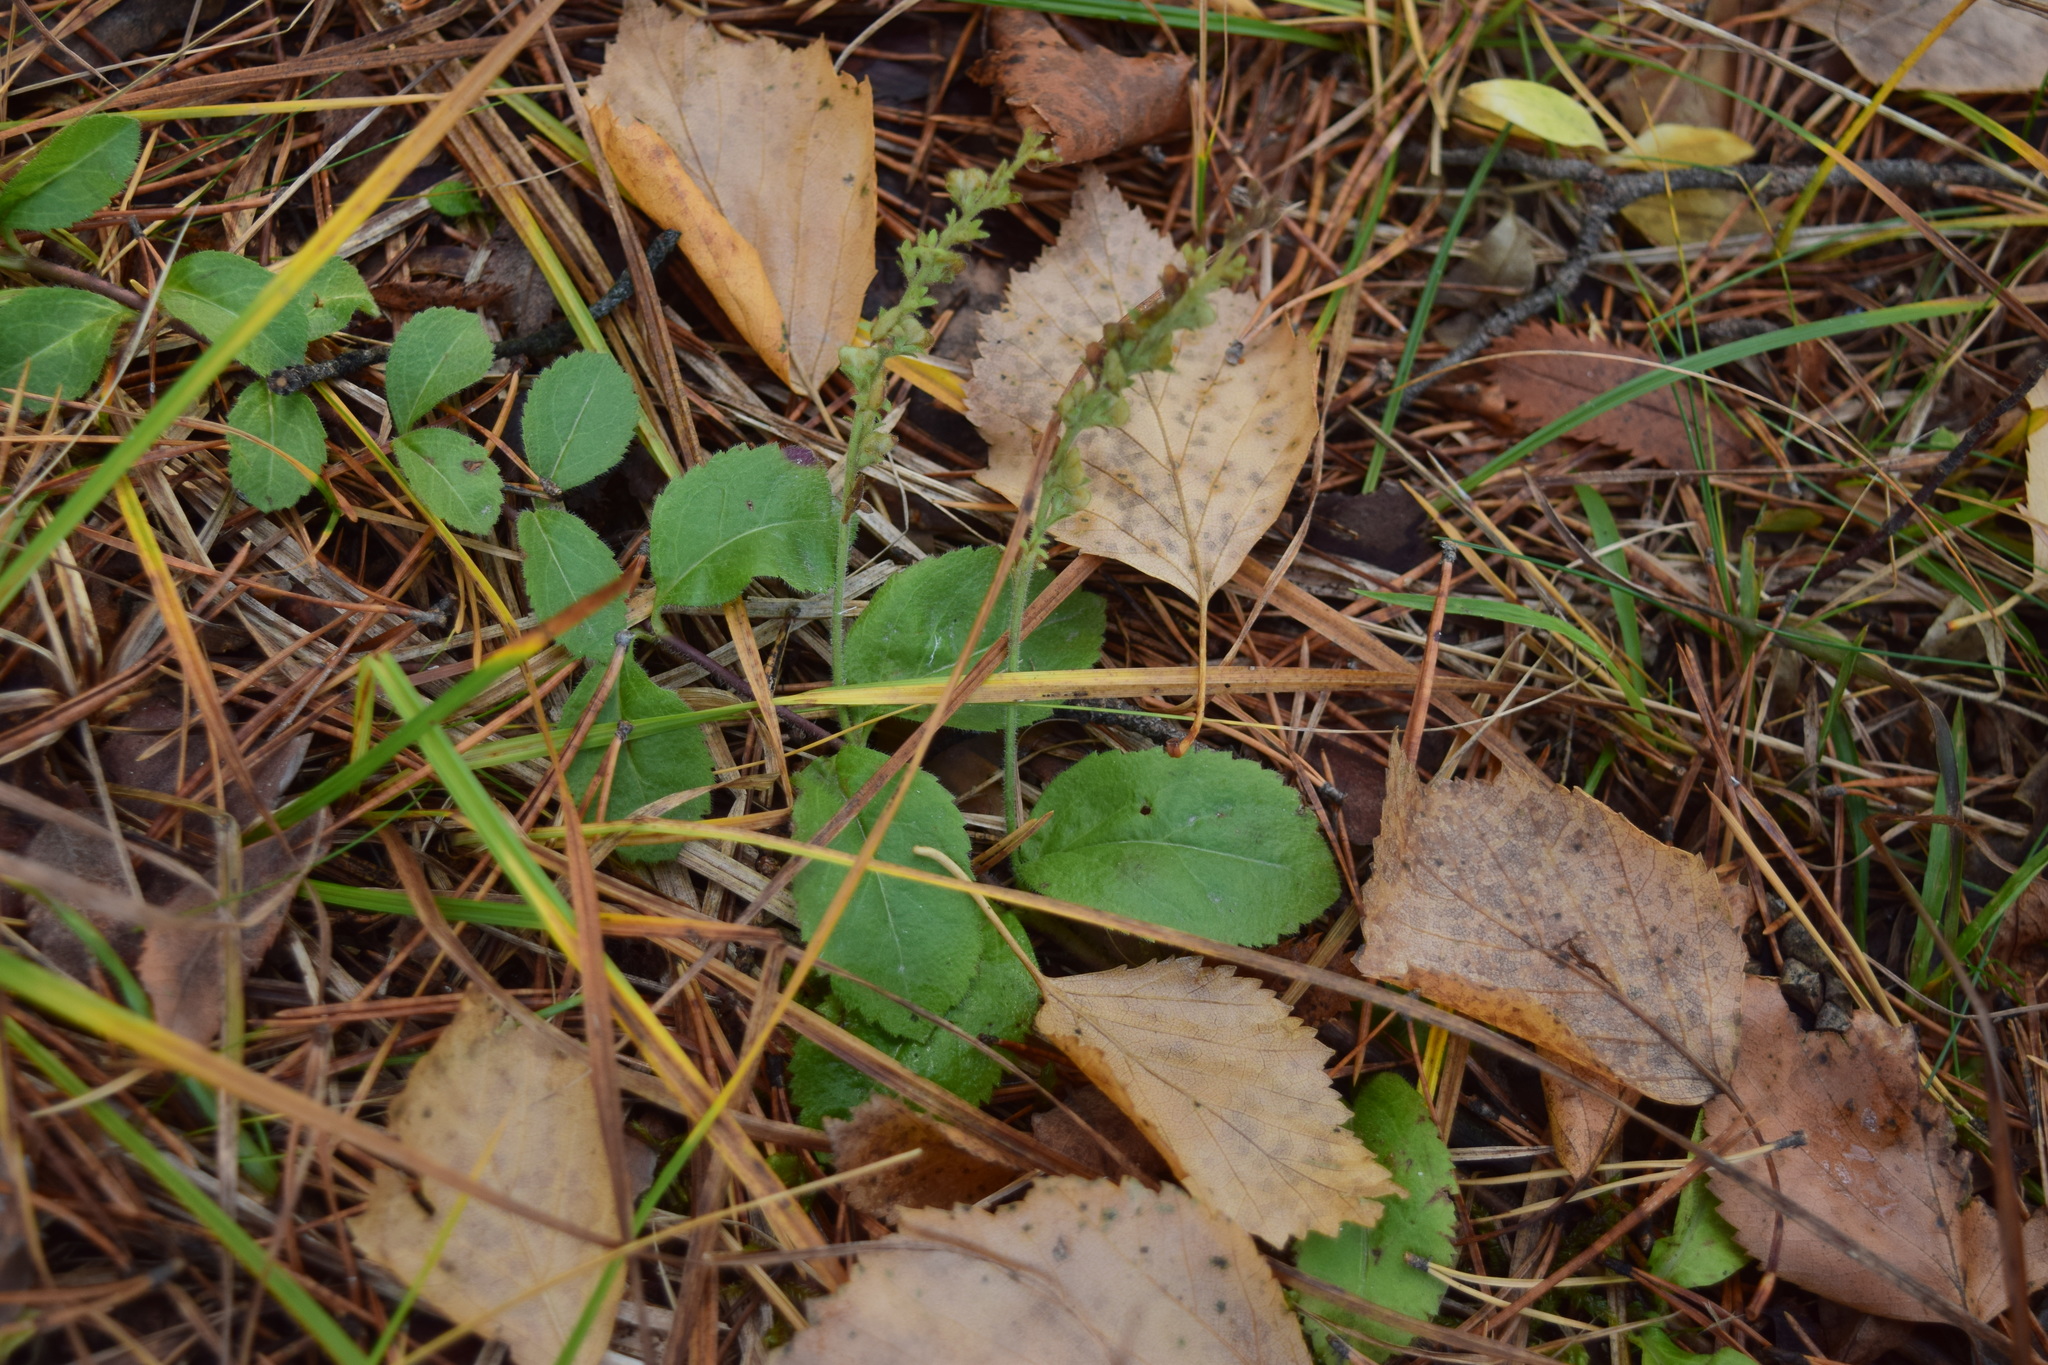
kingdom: Plantae
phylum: Tracheophyta
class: Magnoliopsida
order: Lamiales
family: Plantaginaceae
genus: Veronica
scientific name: Veronica officinalis
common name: Common speedwell
